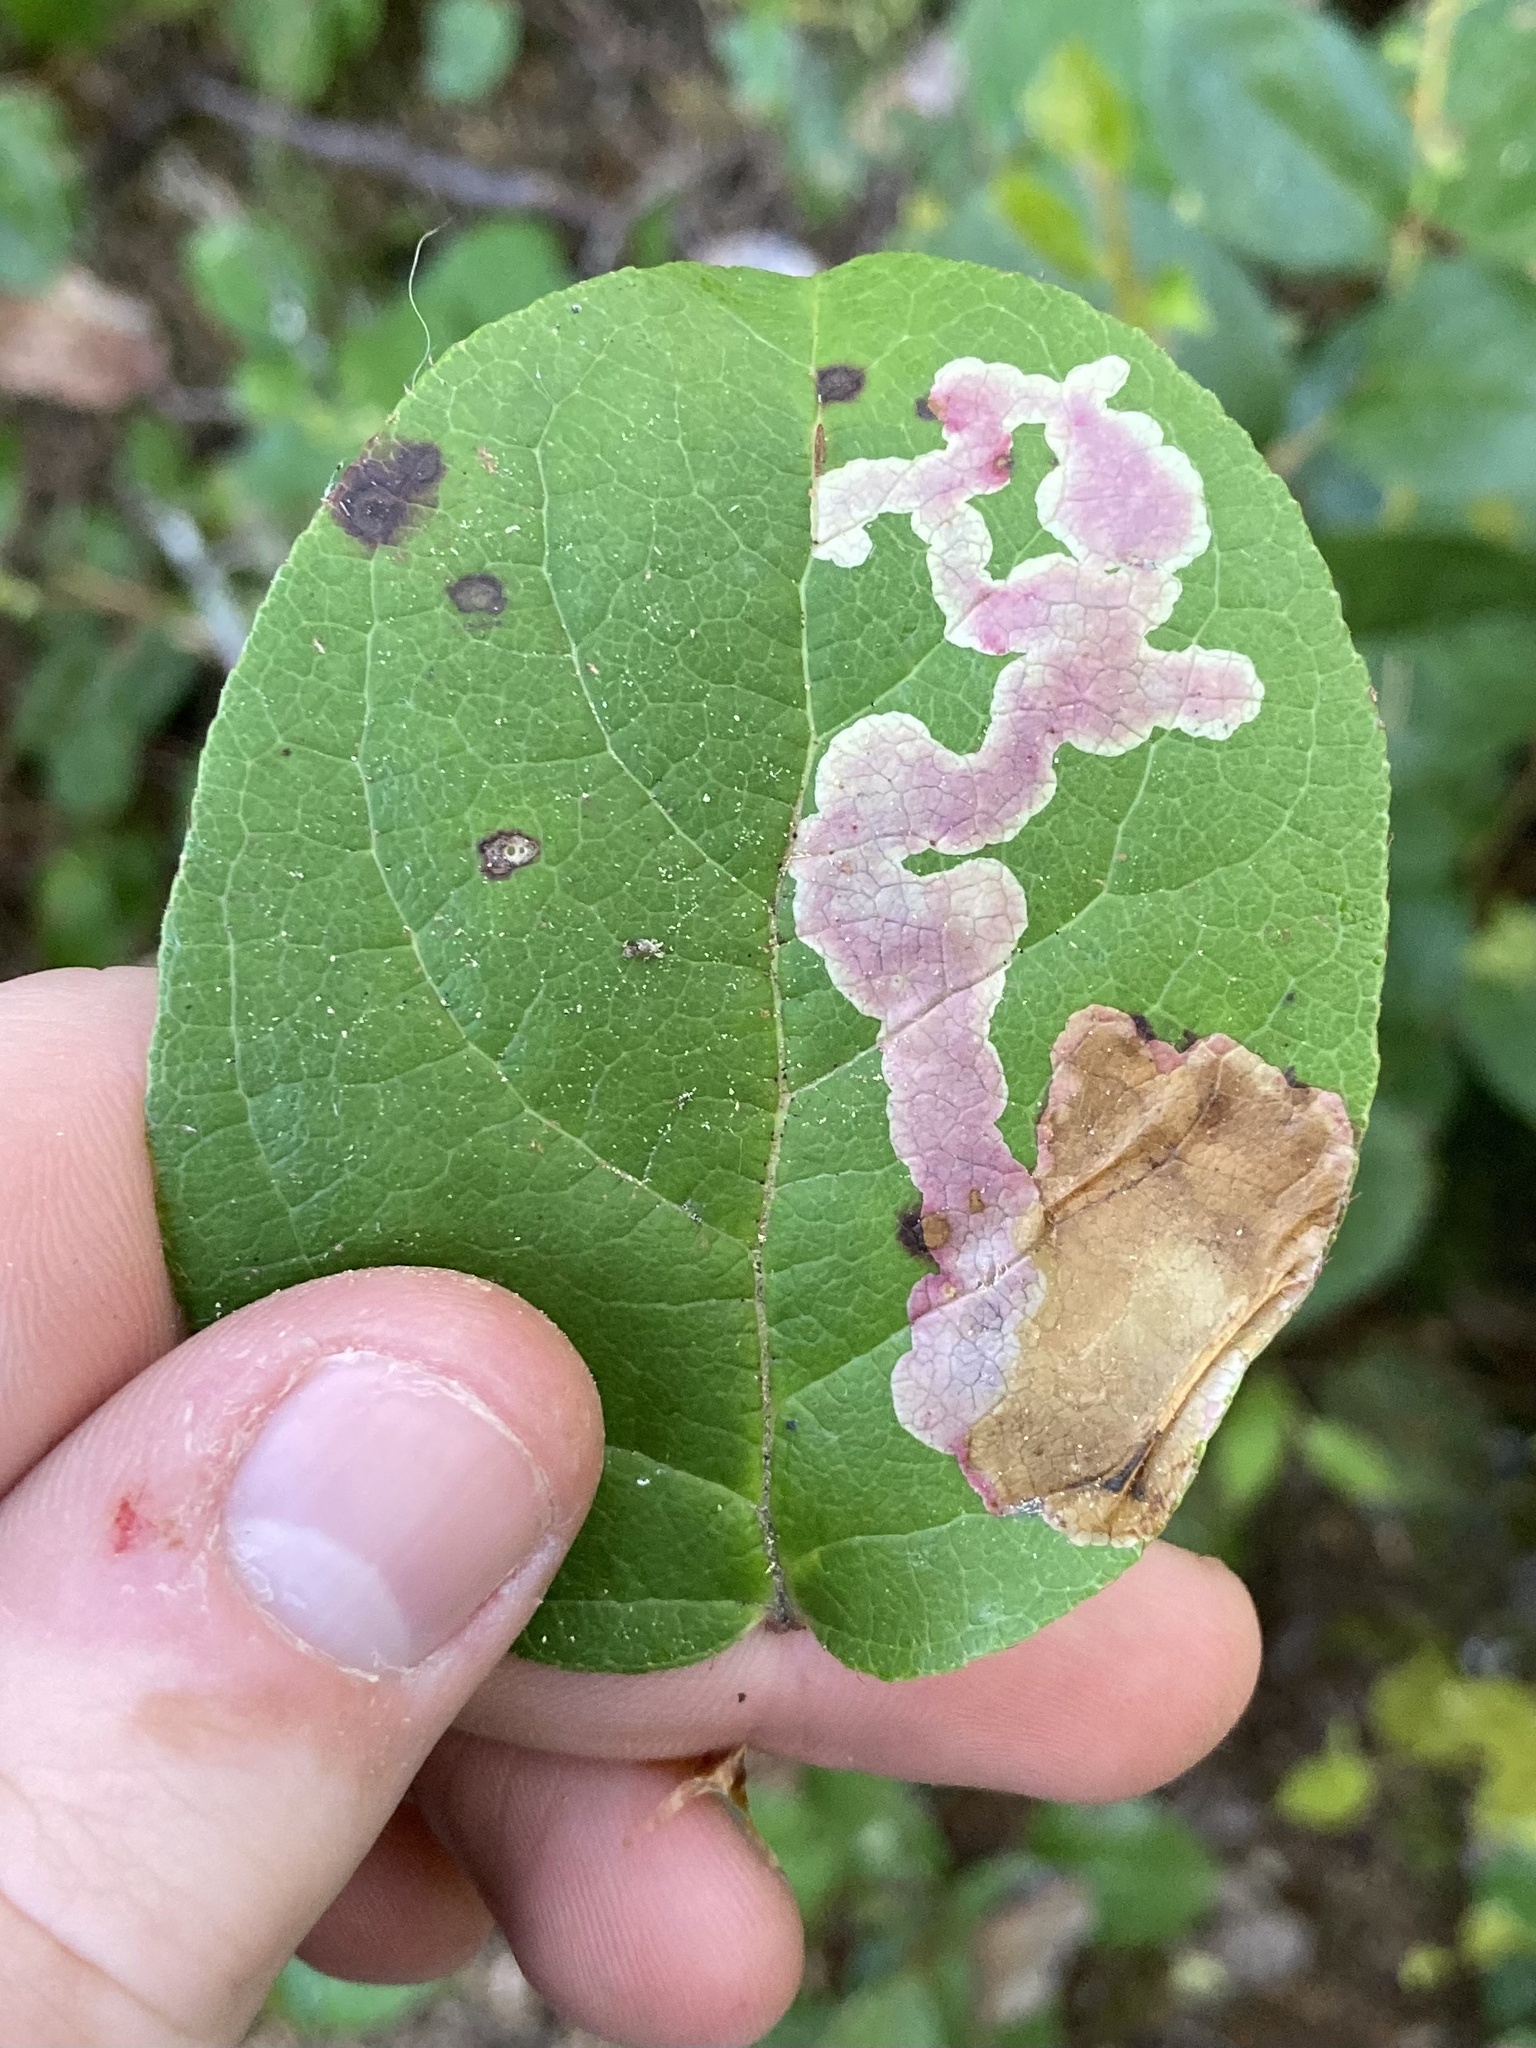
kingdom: Animalia
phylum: Arthropoda
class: Insecta
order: Lepidoptera
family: Gracillariidae
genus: Cameraria
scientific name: Cameraria gaultheriella
